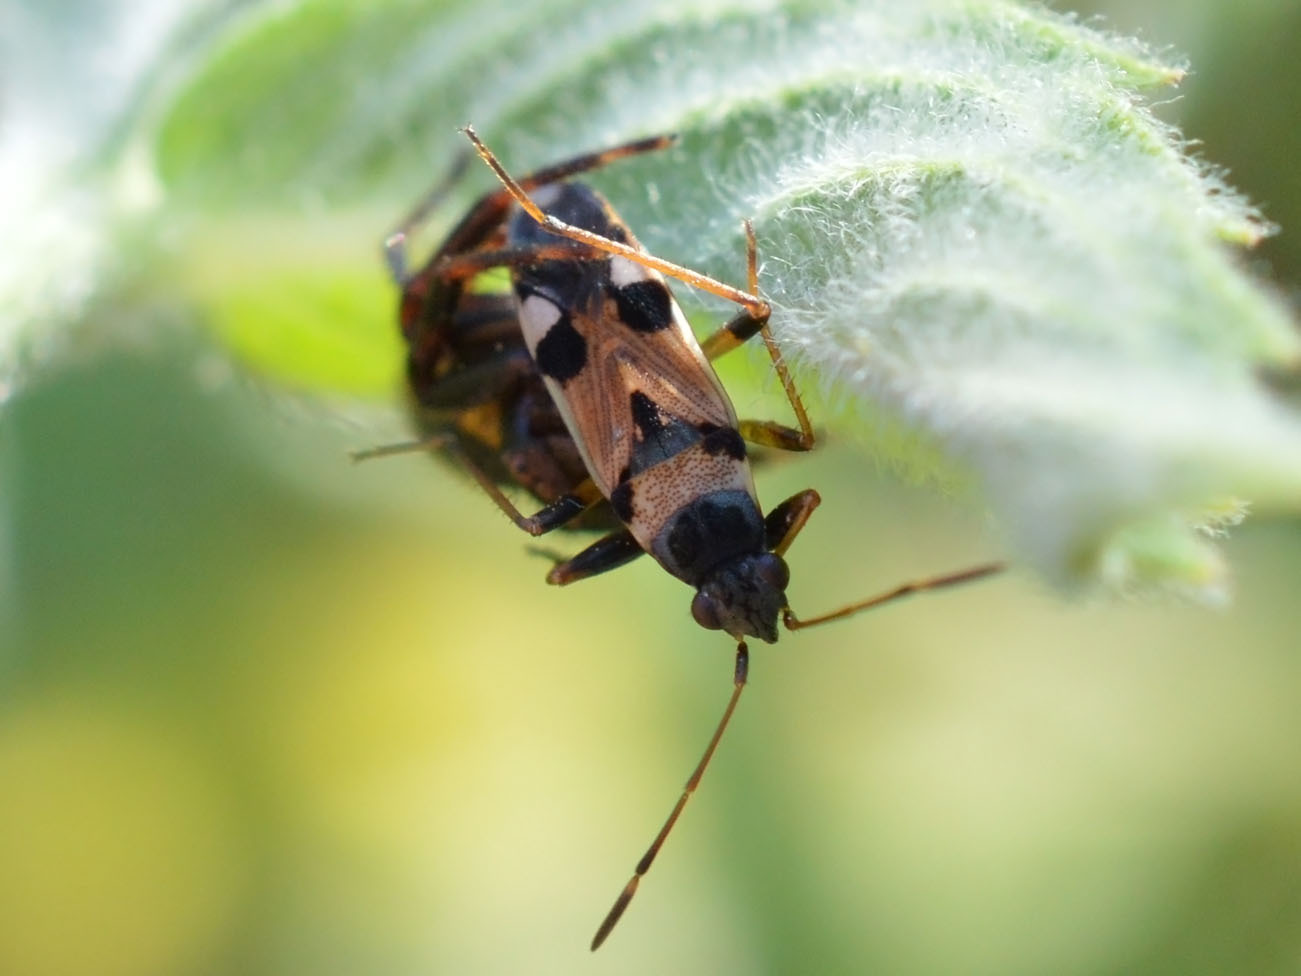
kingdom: Animalia
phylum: Arthropoda
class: Arachnida
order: Araneae
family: Thomisidae
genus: Synema
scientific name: Synema globosum
